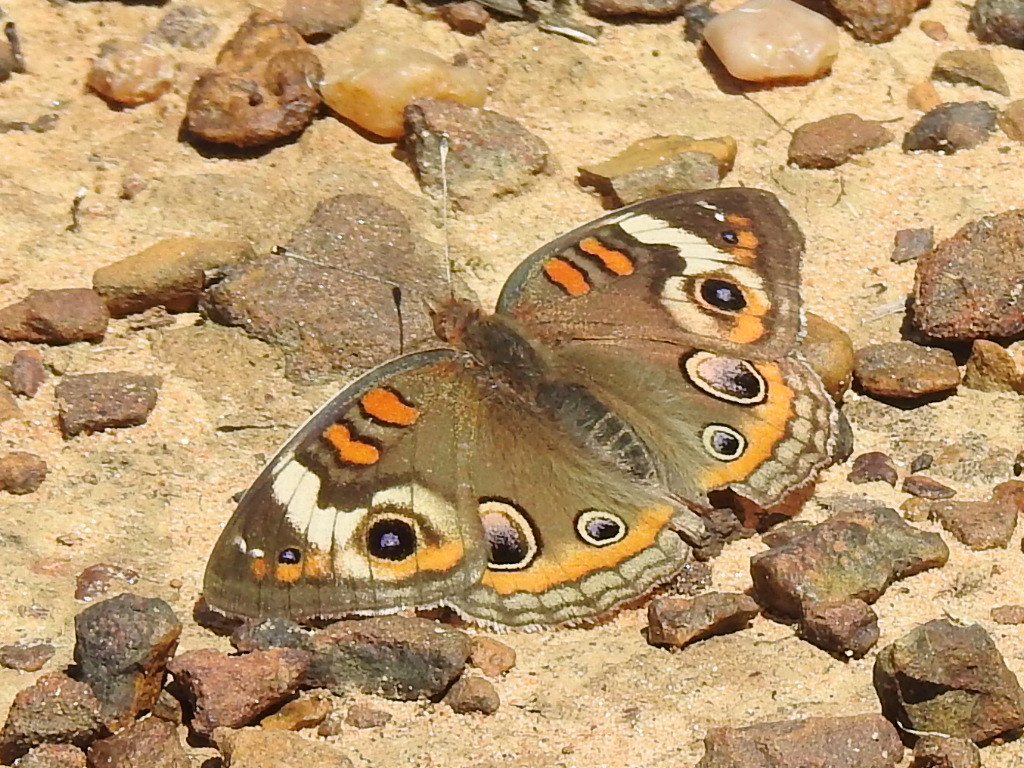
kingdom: Animalia
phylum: Arthropoda
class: Insecta
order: Lepidoptera
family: Nymphalidae
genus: Junonia
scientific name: Junonia coenia
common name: Common buckeye
